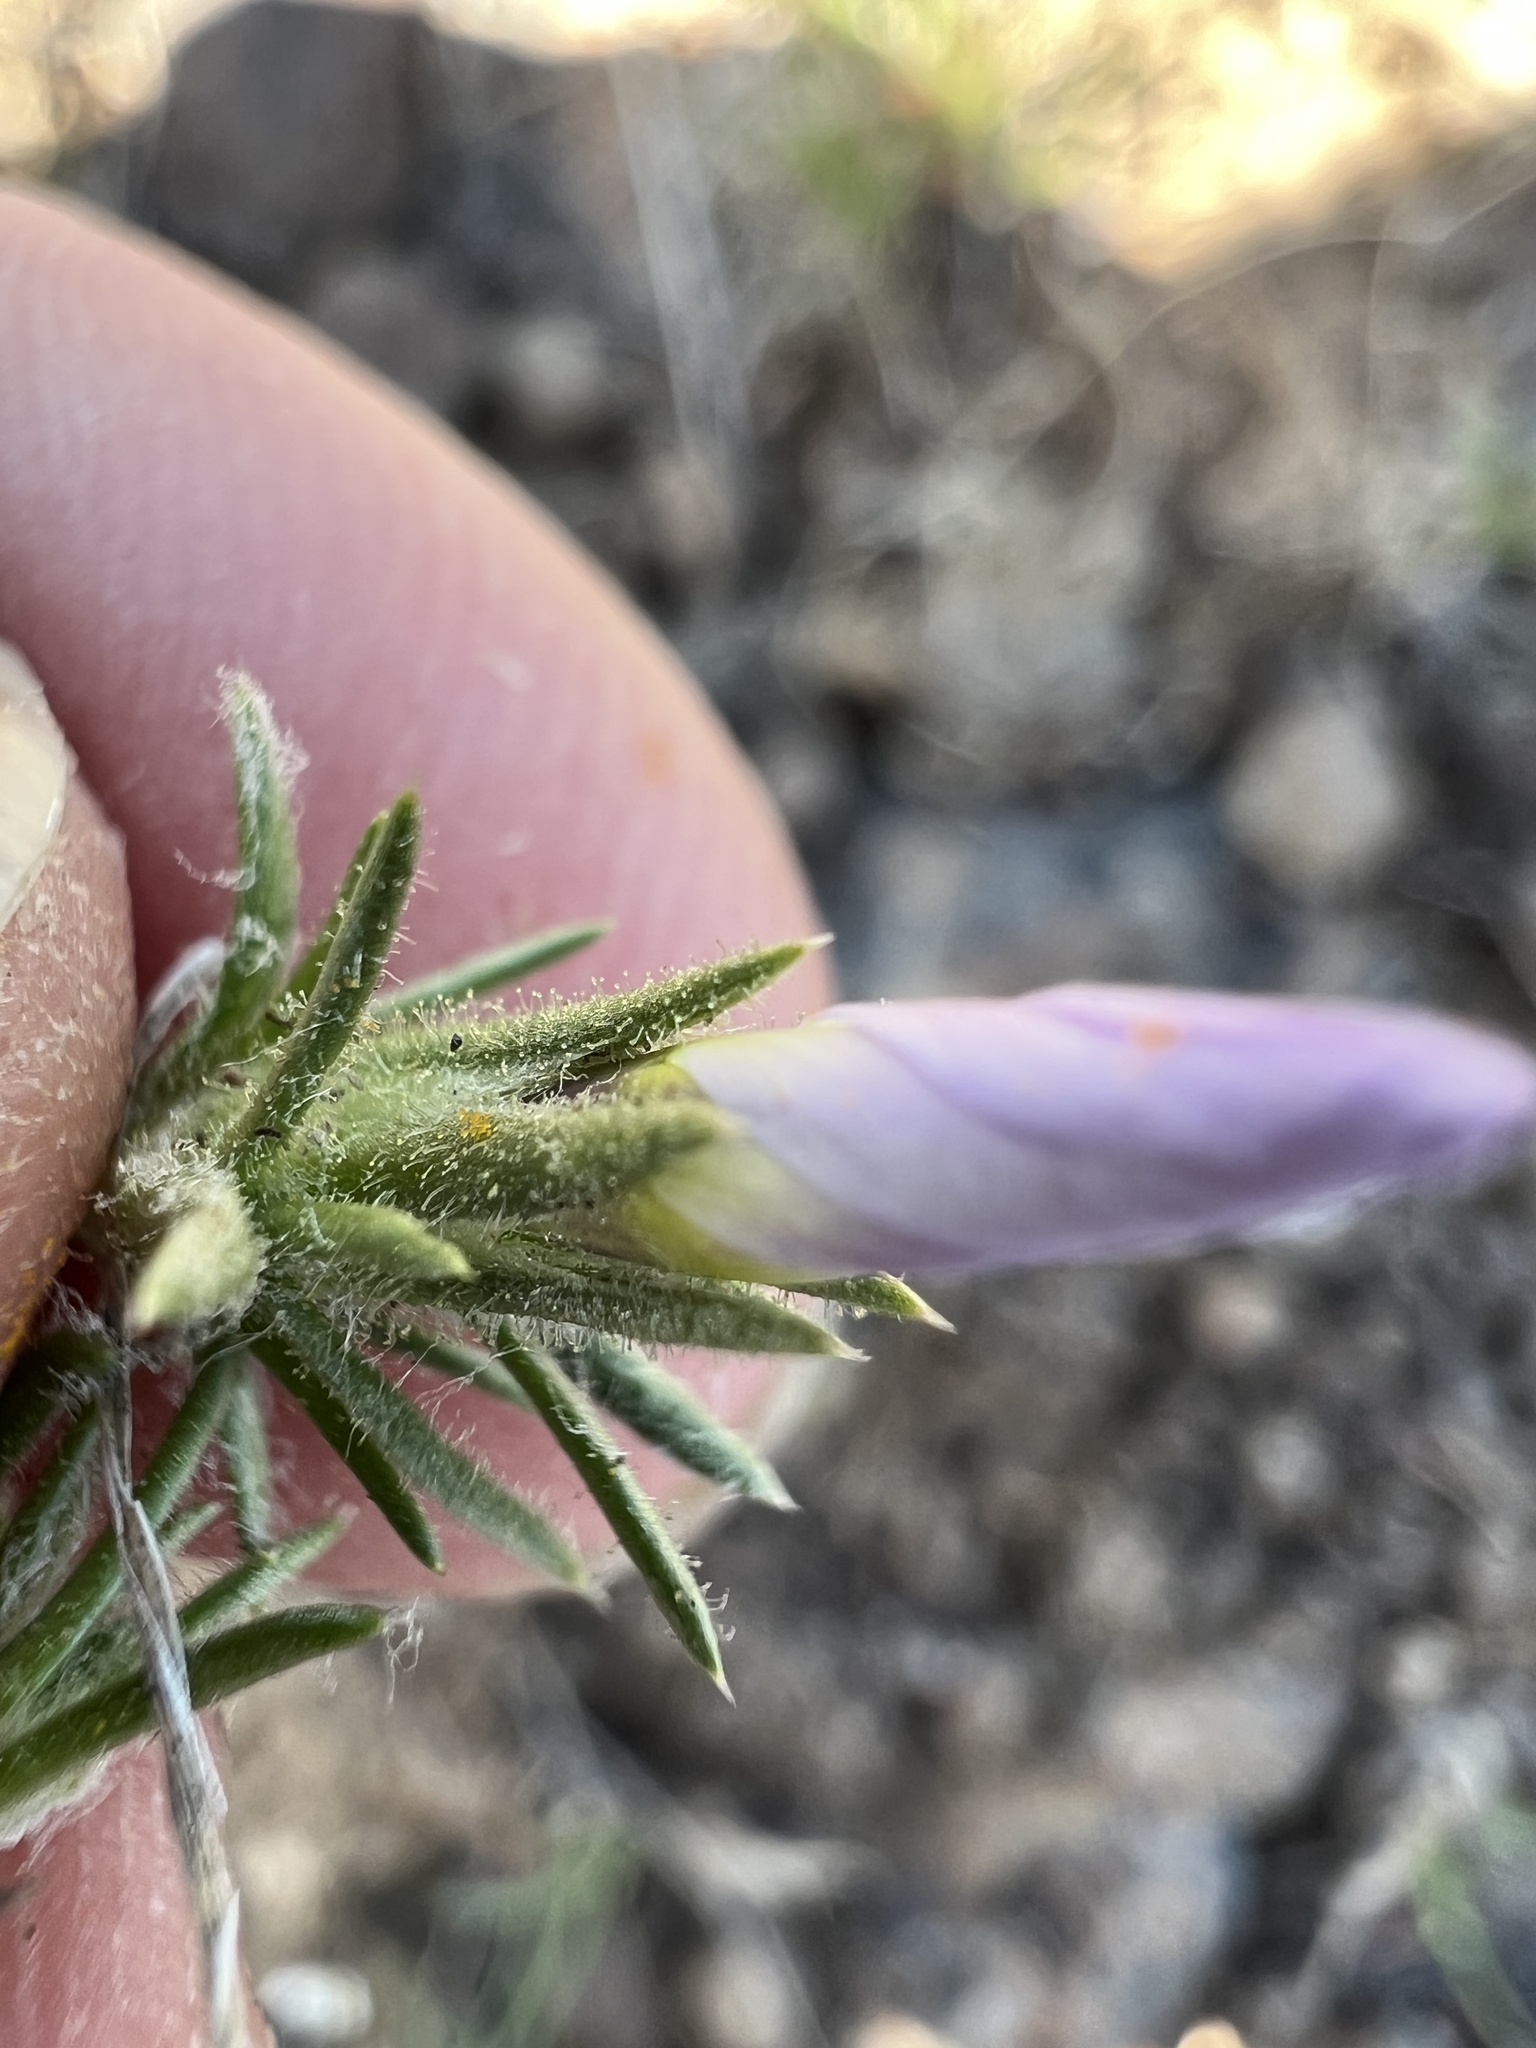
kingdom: Plantae
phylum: Tracheophyta
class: Magnoliopsida
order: Ericales
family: Polemoniaceae
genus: Phlox
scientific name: Phlox douglasii
